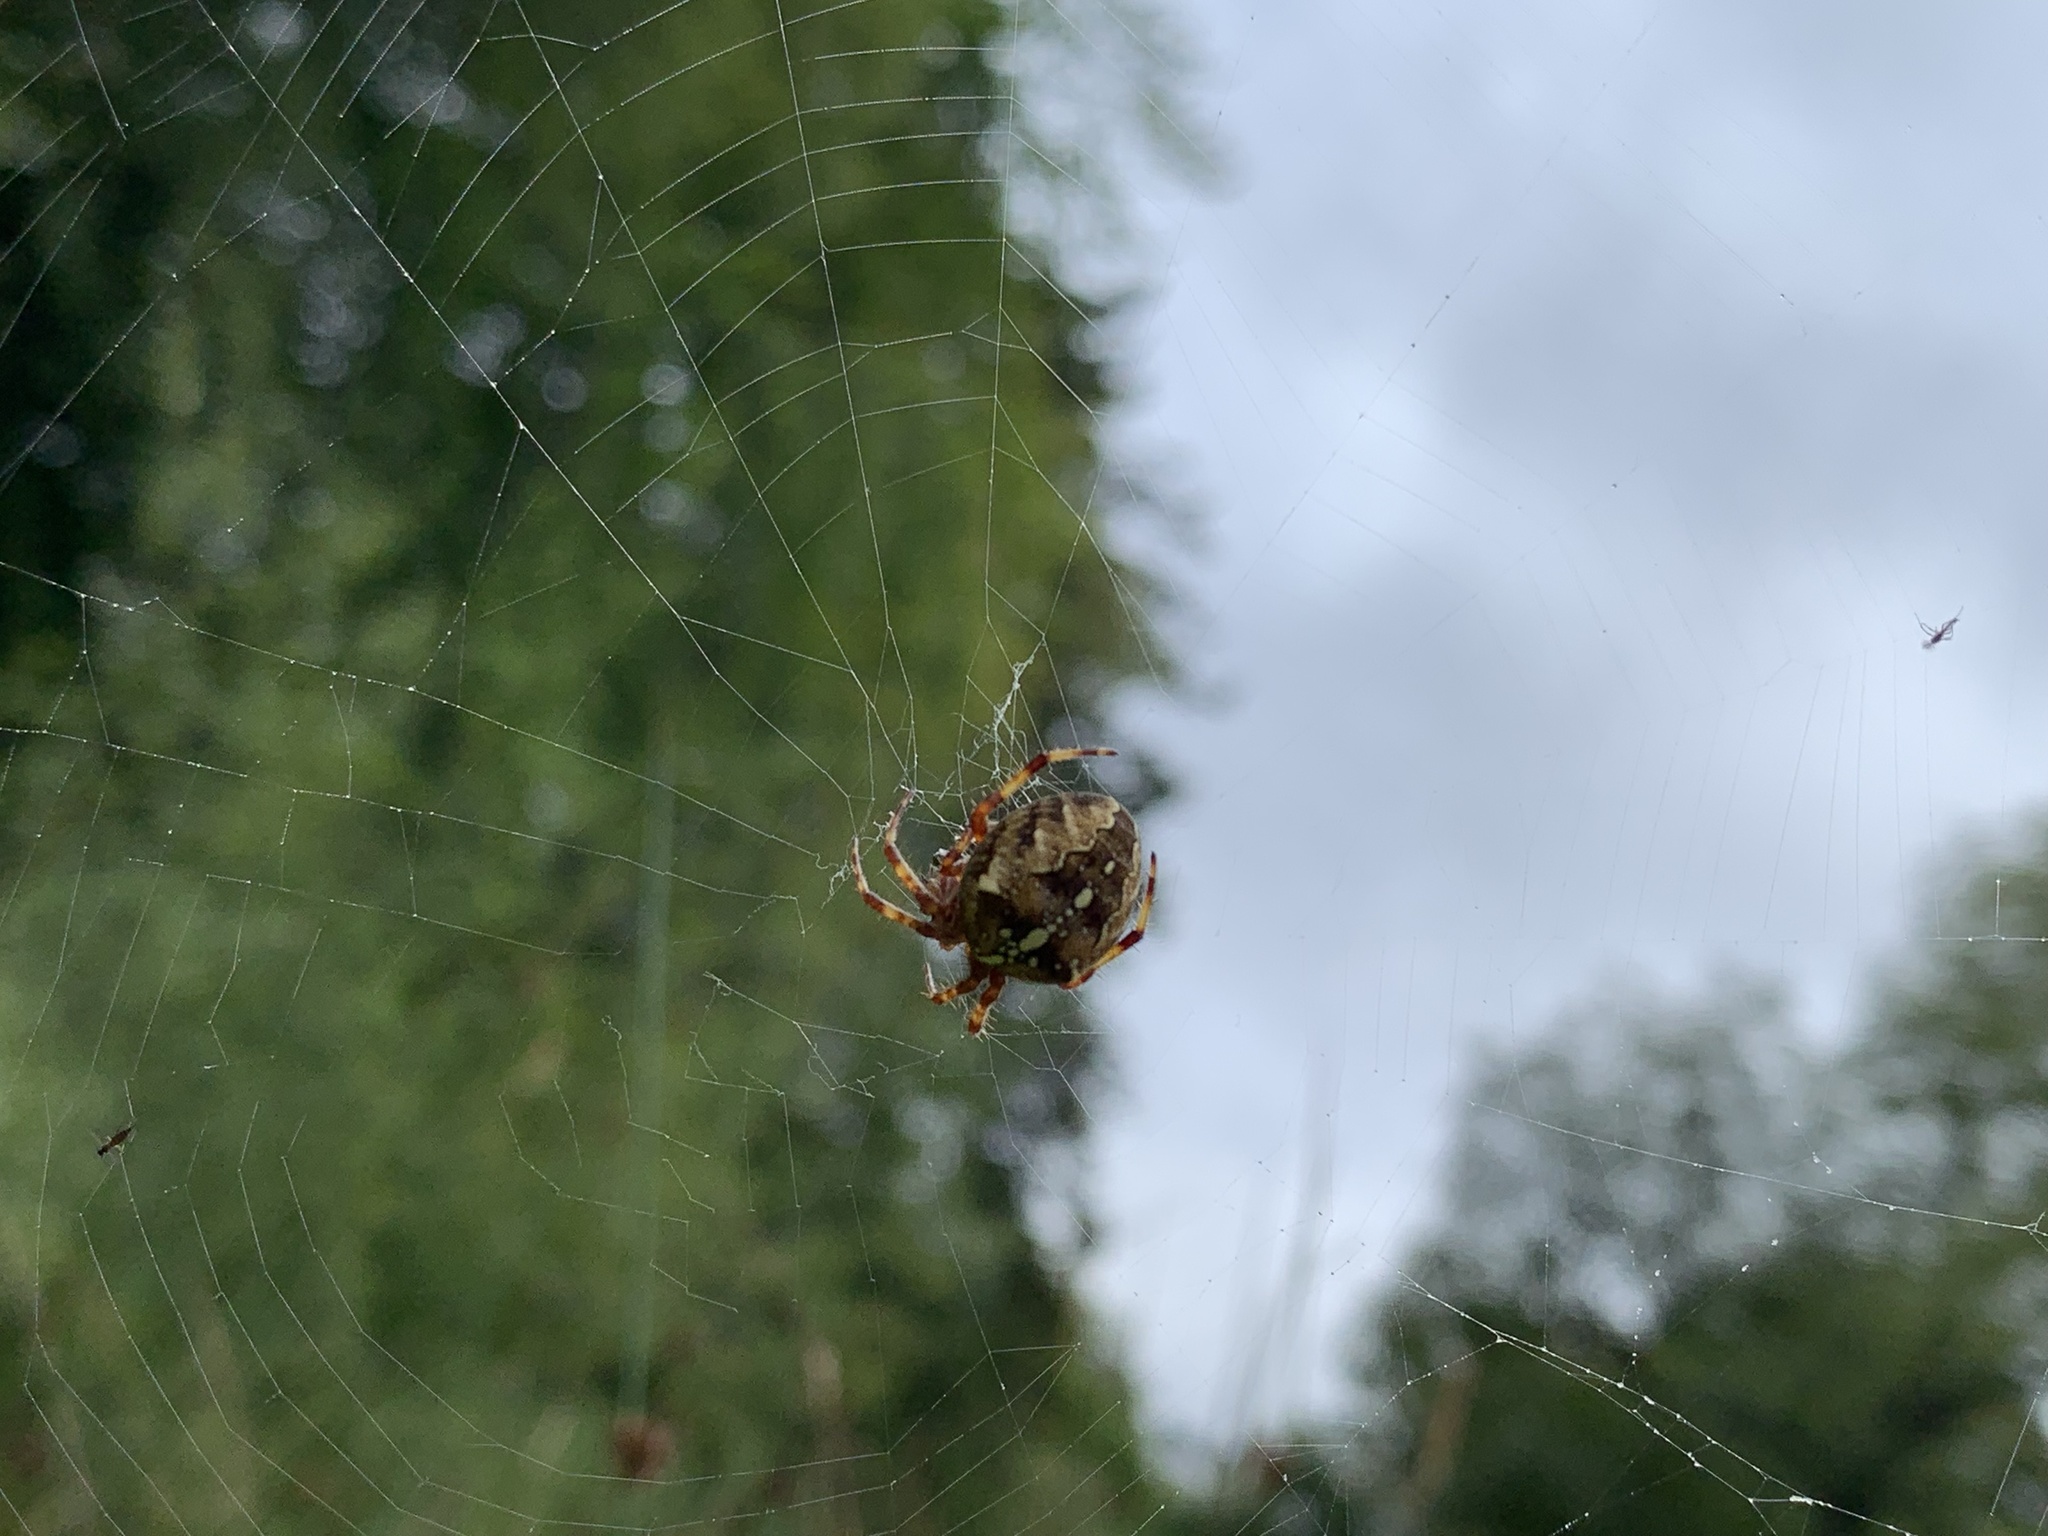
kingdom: Animalia
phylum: Arthropoda
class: Arachnida
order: Araneae
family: Araneidae
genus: Araneus
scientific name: Araneus diadematus
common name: Cross orbweaver
